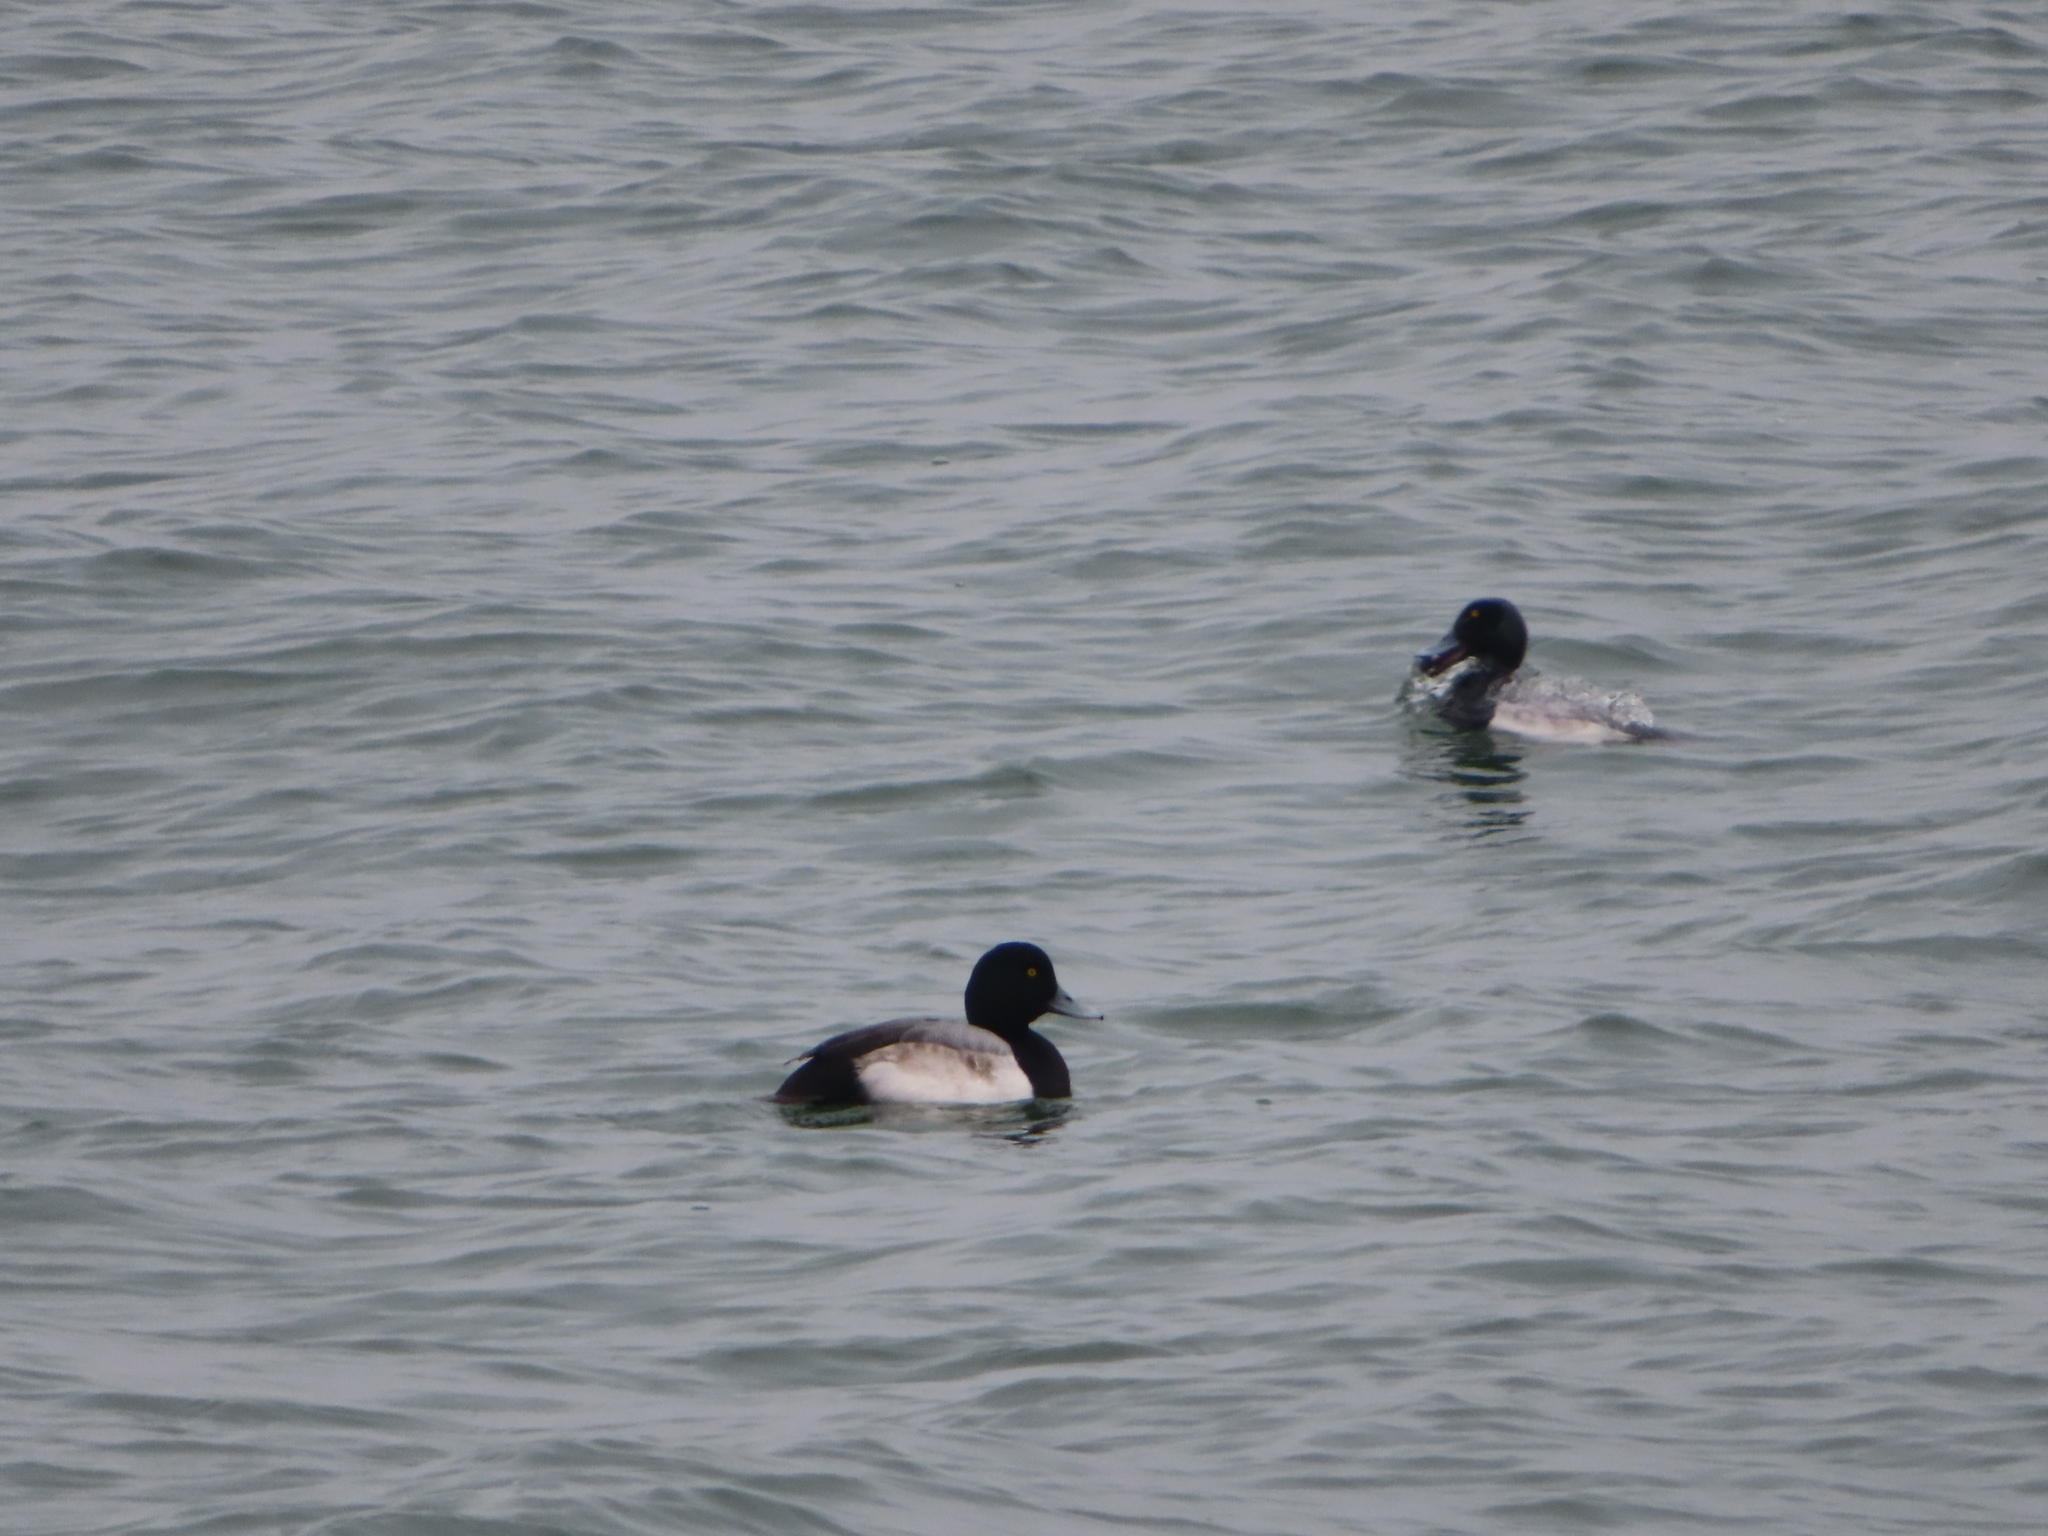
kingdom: Animalia
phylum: Chordata
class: Aves
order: Anseriformes
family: Anatidae
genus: Aythya
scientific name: Aythya marila
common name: Greater scaup
